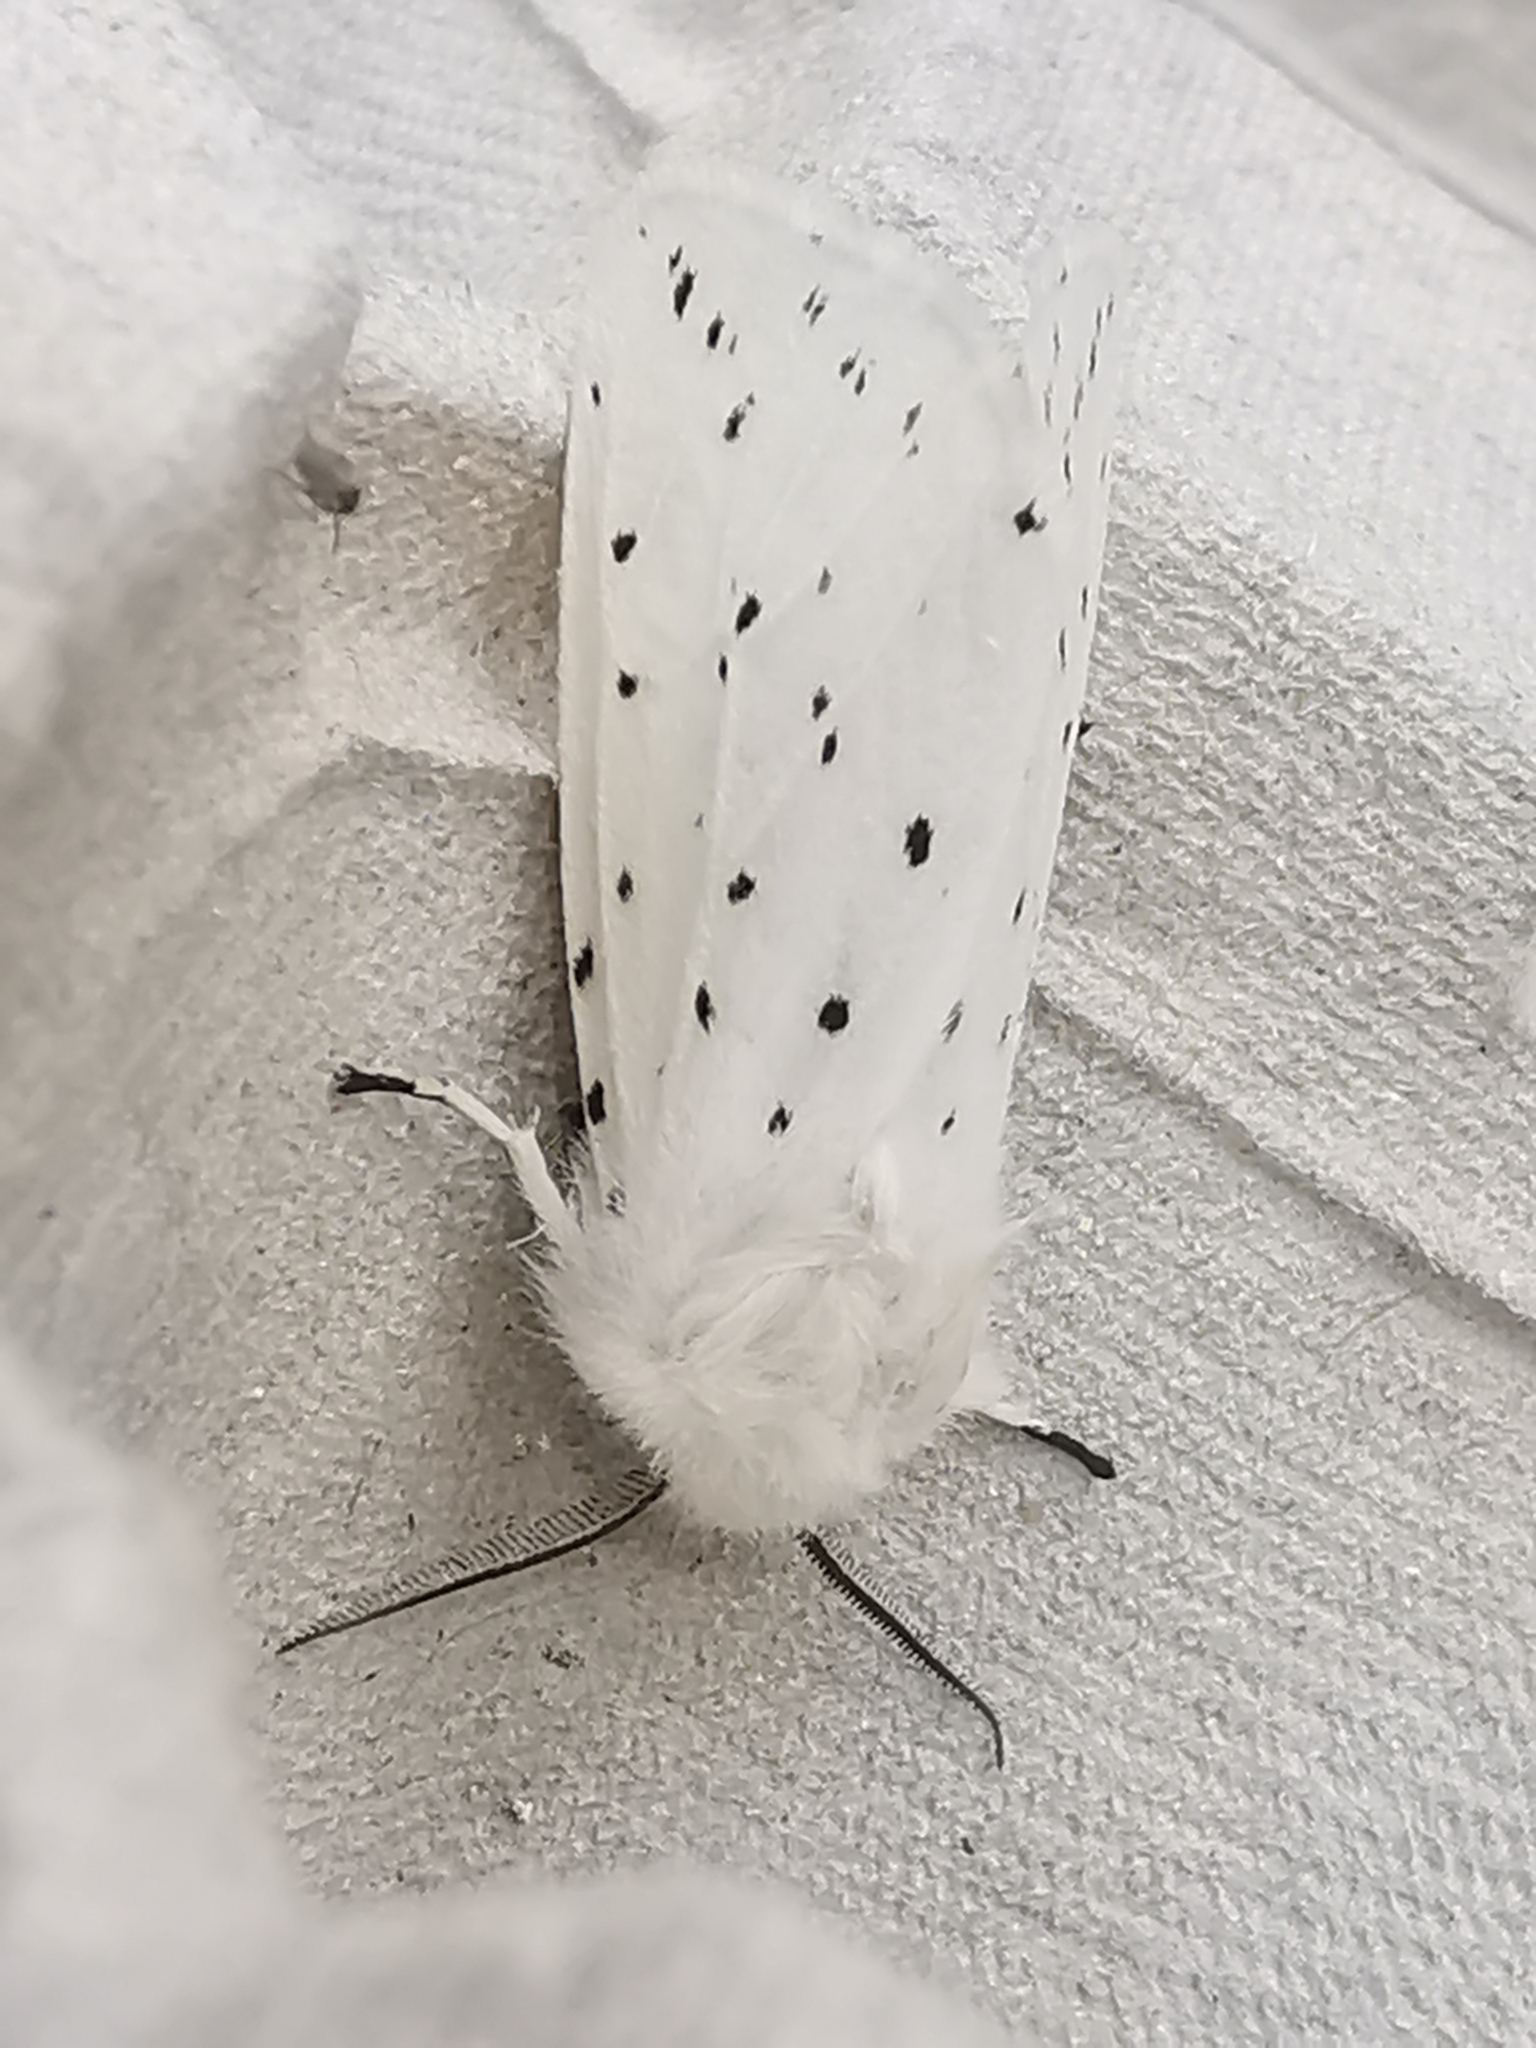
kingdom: Animalia
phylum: Arthropoda
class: Insecta
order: Lepidoptera
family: Erebidae
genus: Spilosoma
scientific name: Spilosoma lubricipeda
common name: White ermine
